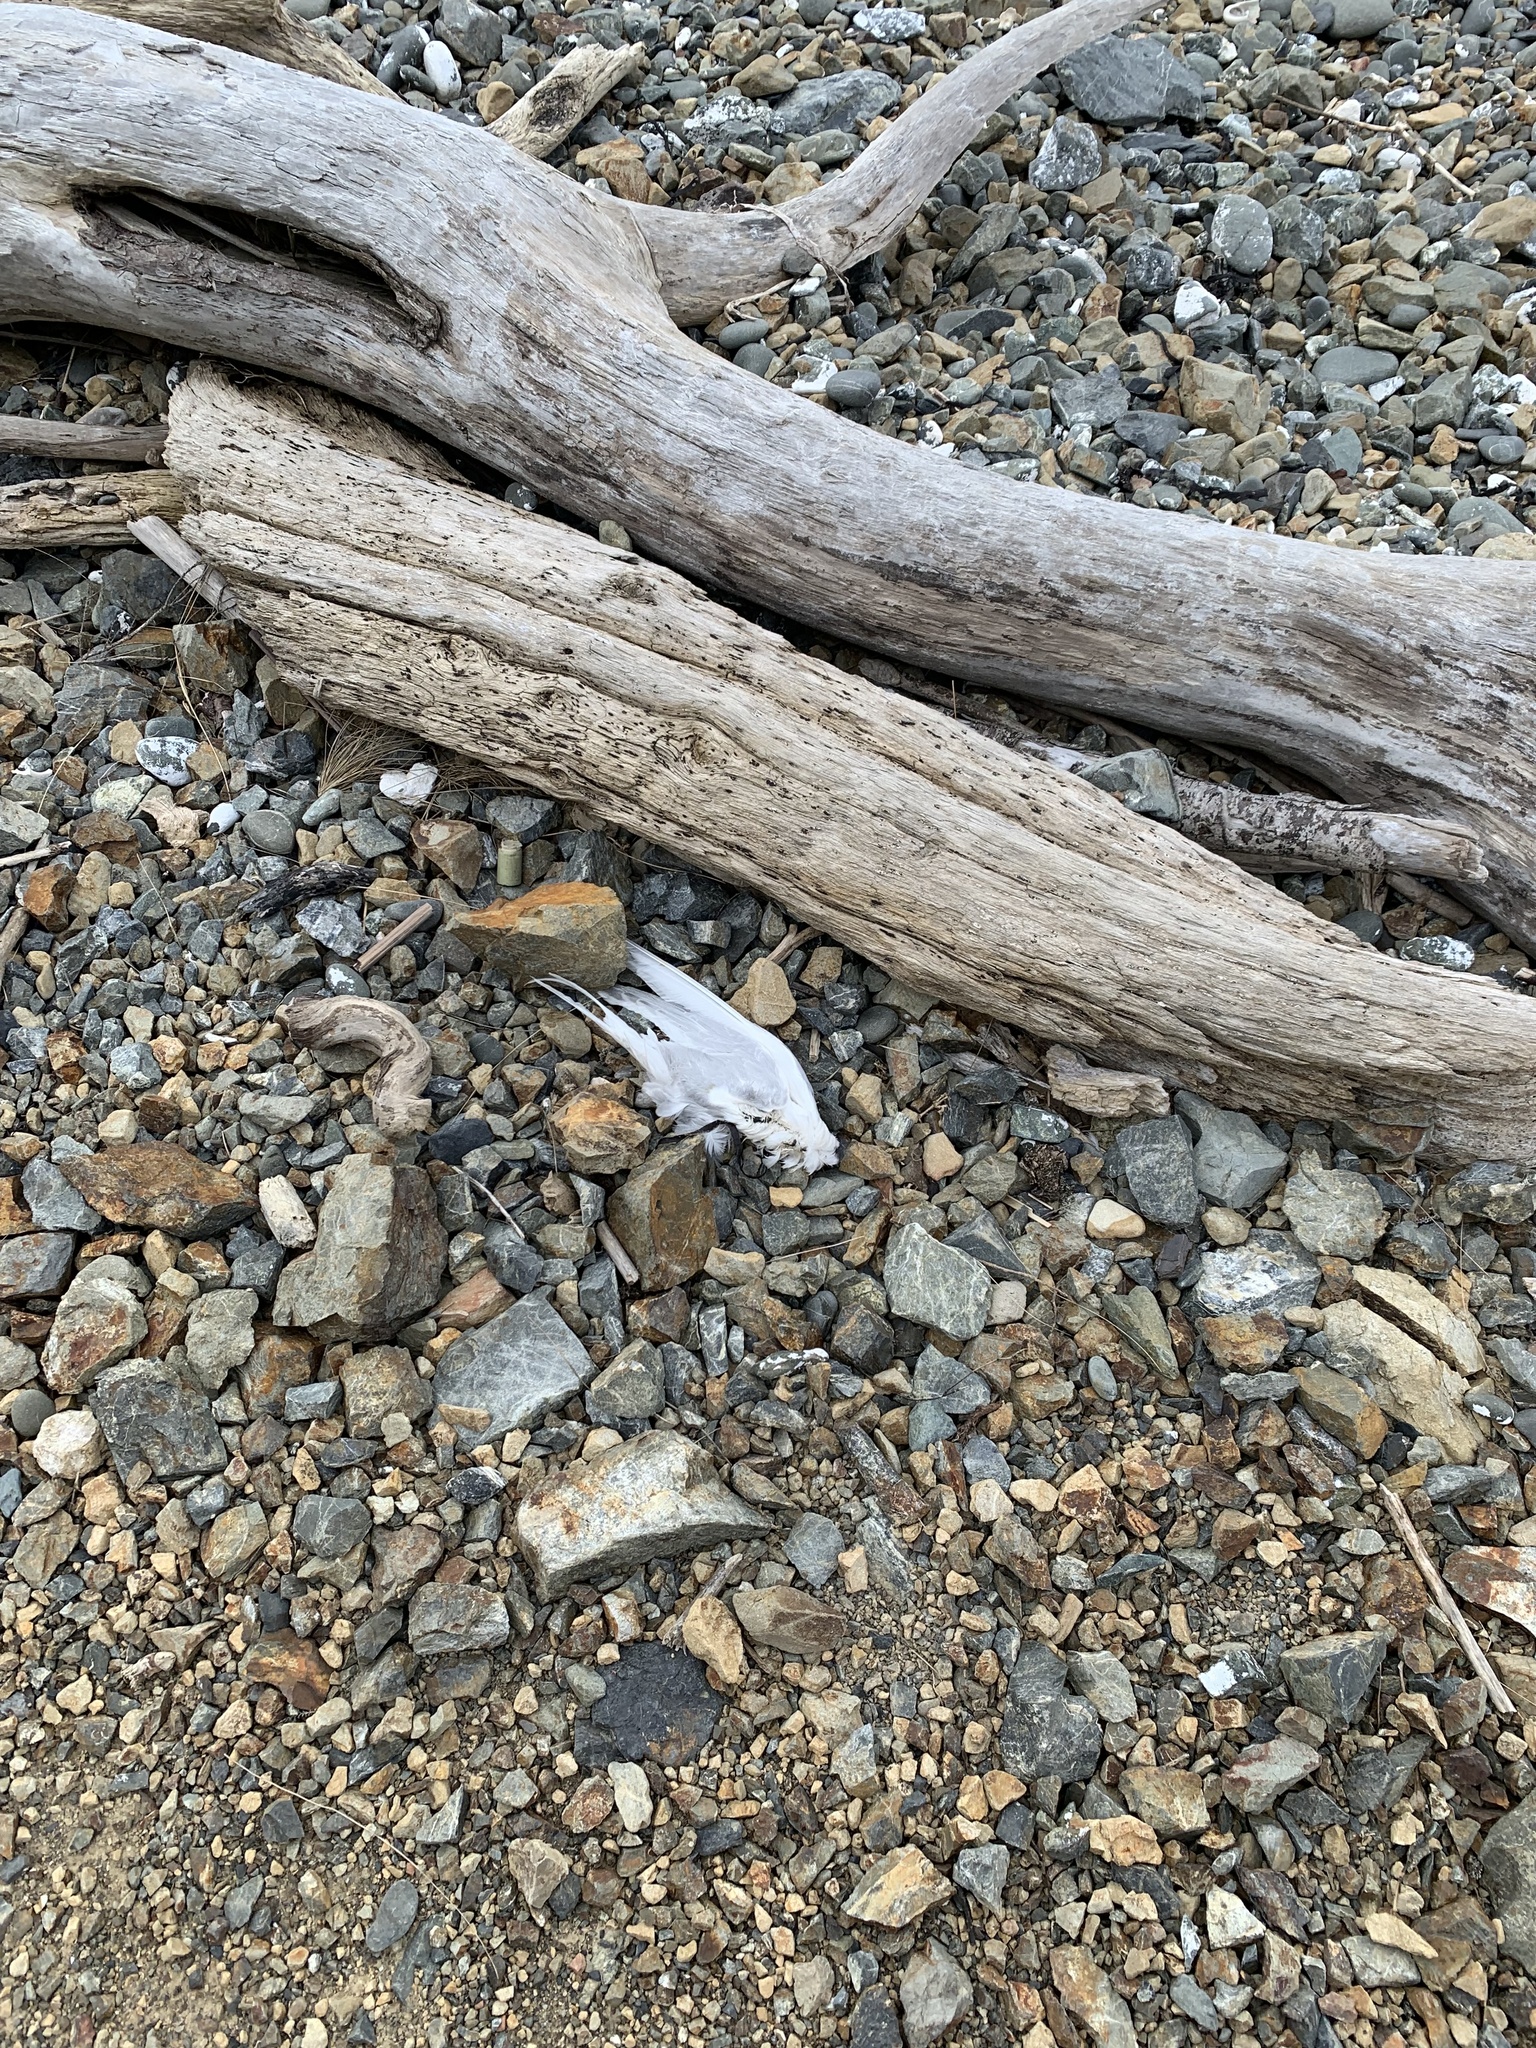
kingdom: Animalia
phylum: Chordata
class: Aves
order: Charadriiformes
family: Laridae
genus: Sterna
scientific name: Sterna striata
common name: White-fronted tern
